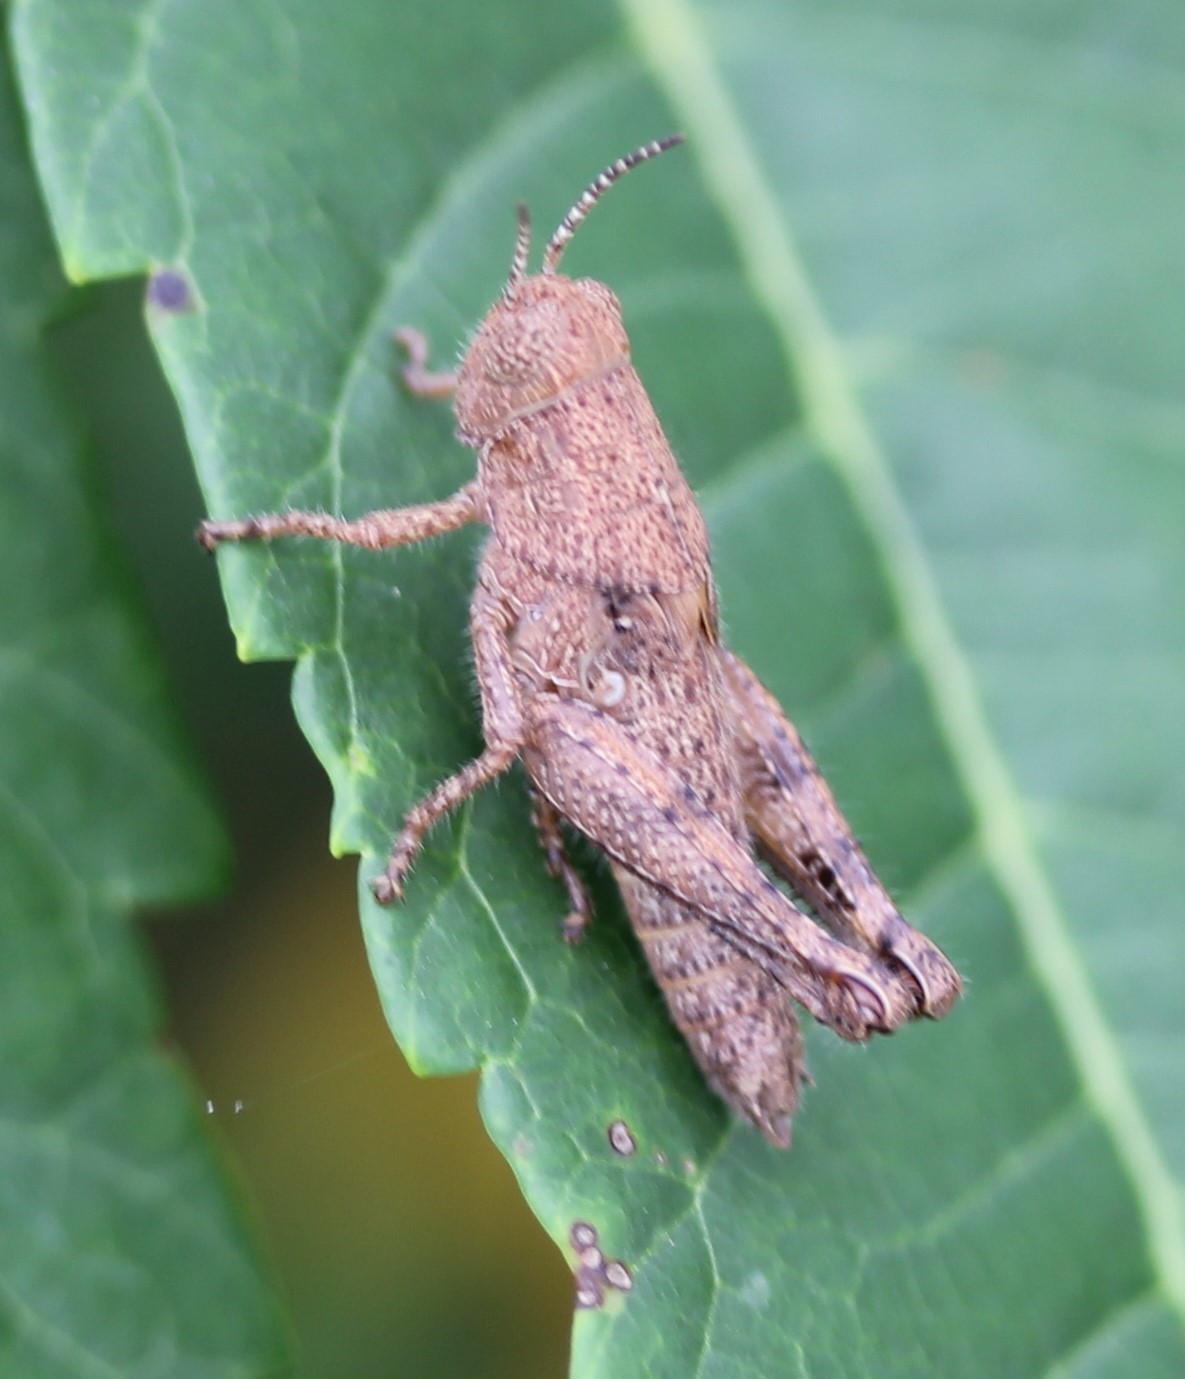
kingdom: Animalia
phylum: Arthropoda
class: Insecta
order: Orthoptera
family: Acrididae
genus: Melanoplus
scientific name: Melanoplus scudderi
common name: Scudder's short-winged locust
